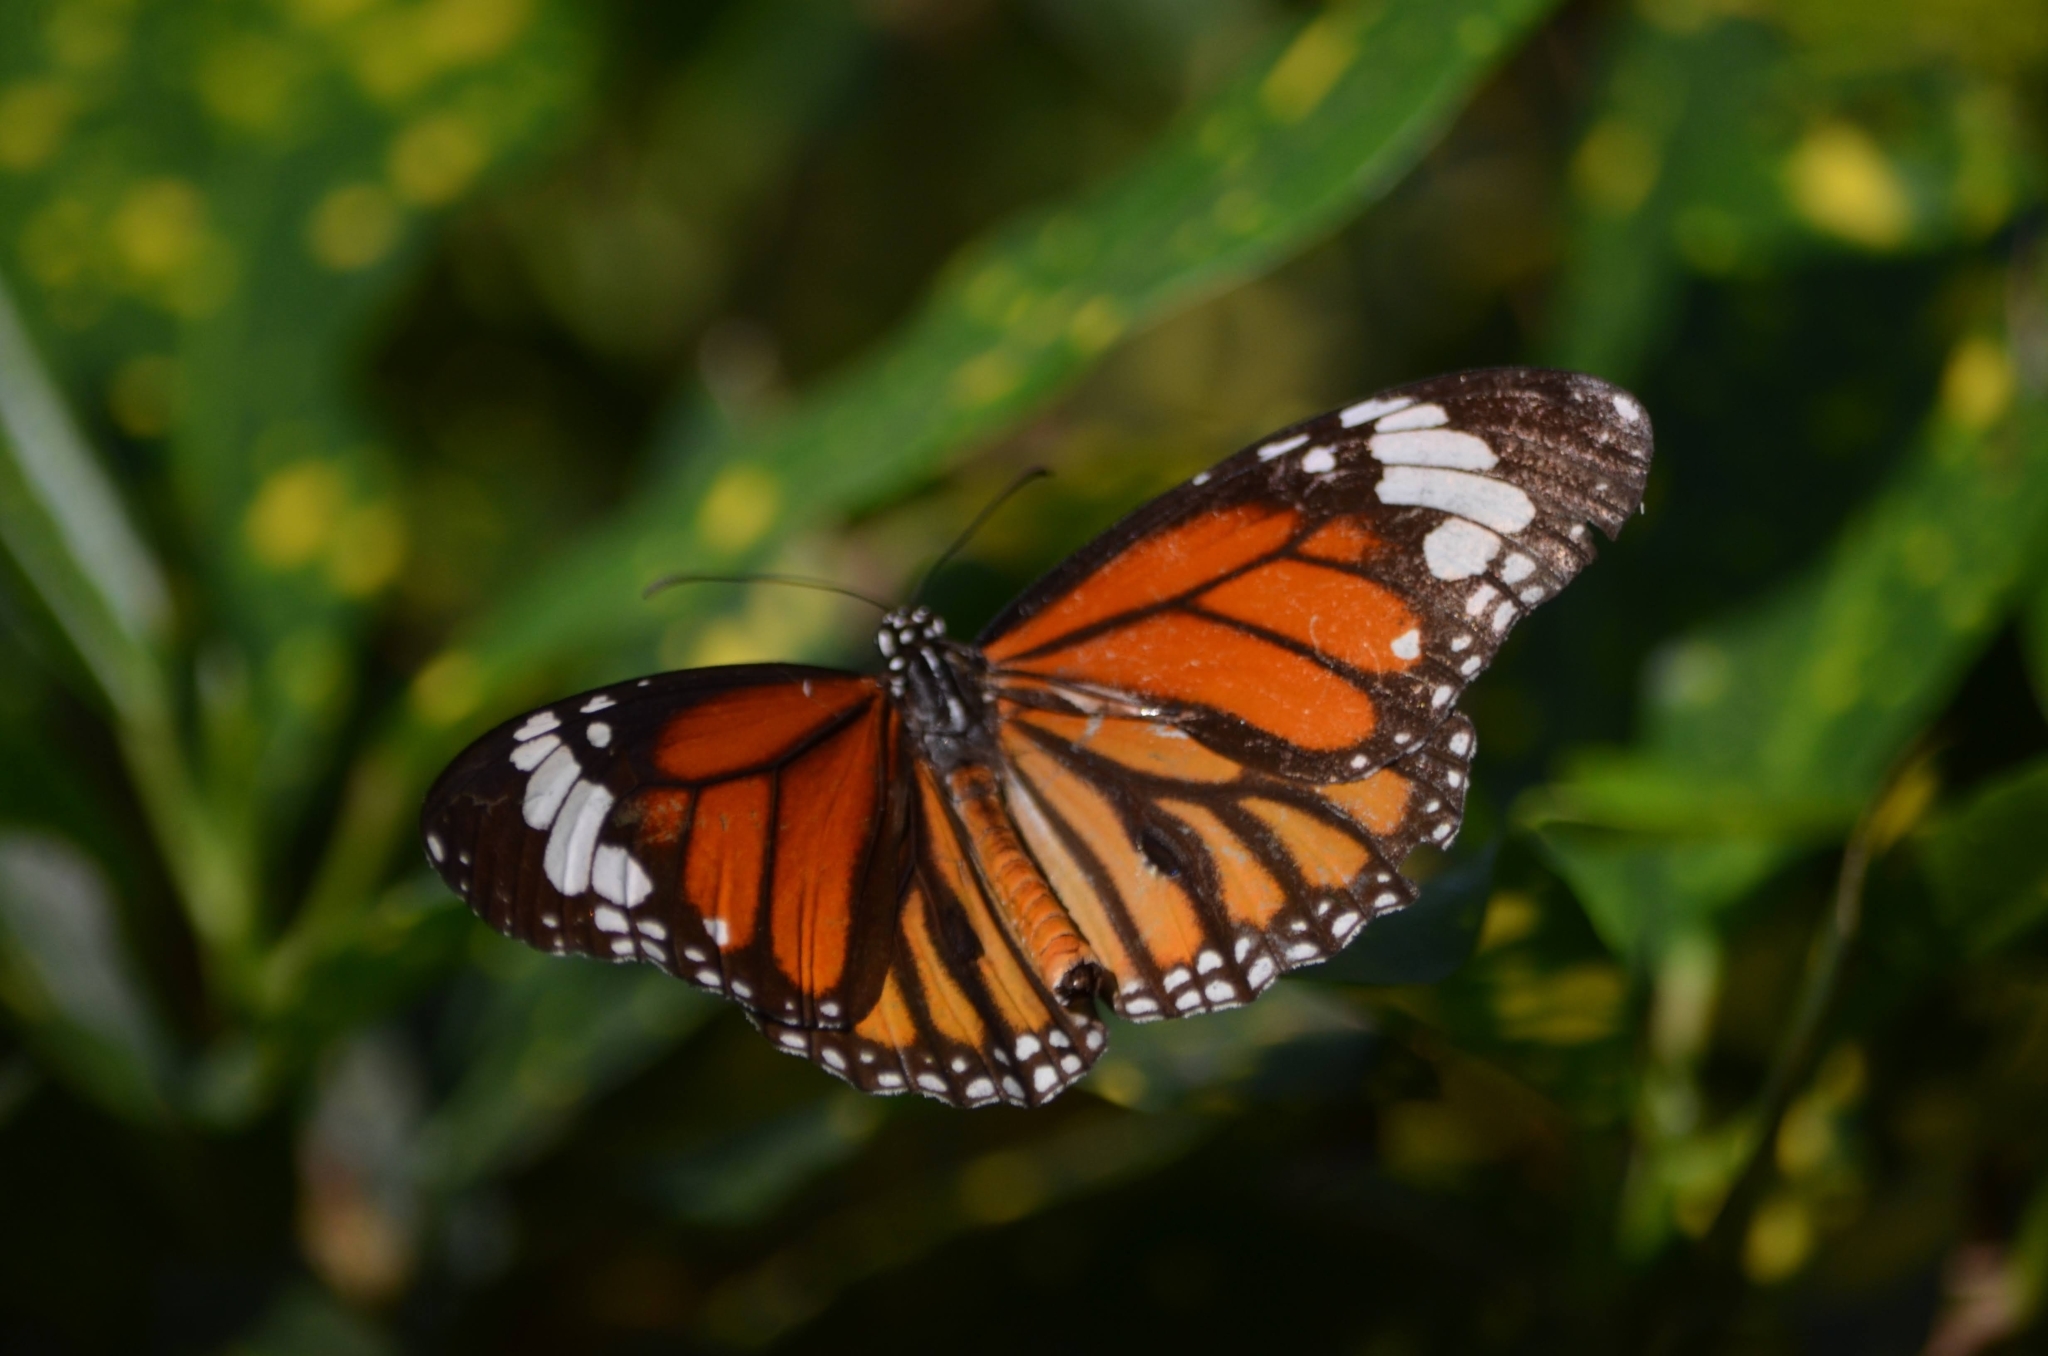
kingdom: Animalia
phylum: Arthropoda
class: Insecta
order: Lepidoptera
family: Nymphalidae
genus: Danaus
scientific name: Danaus genutia
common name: Common tiger butterfly
